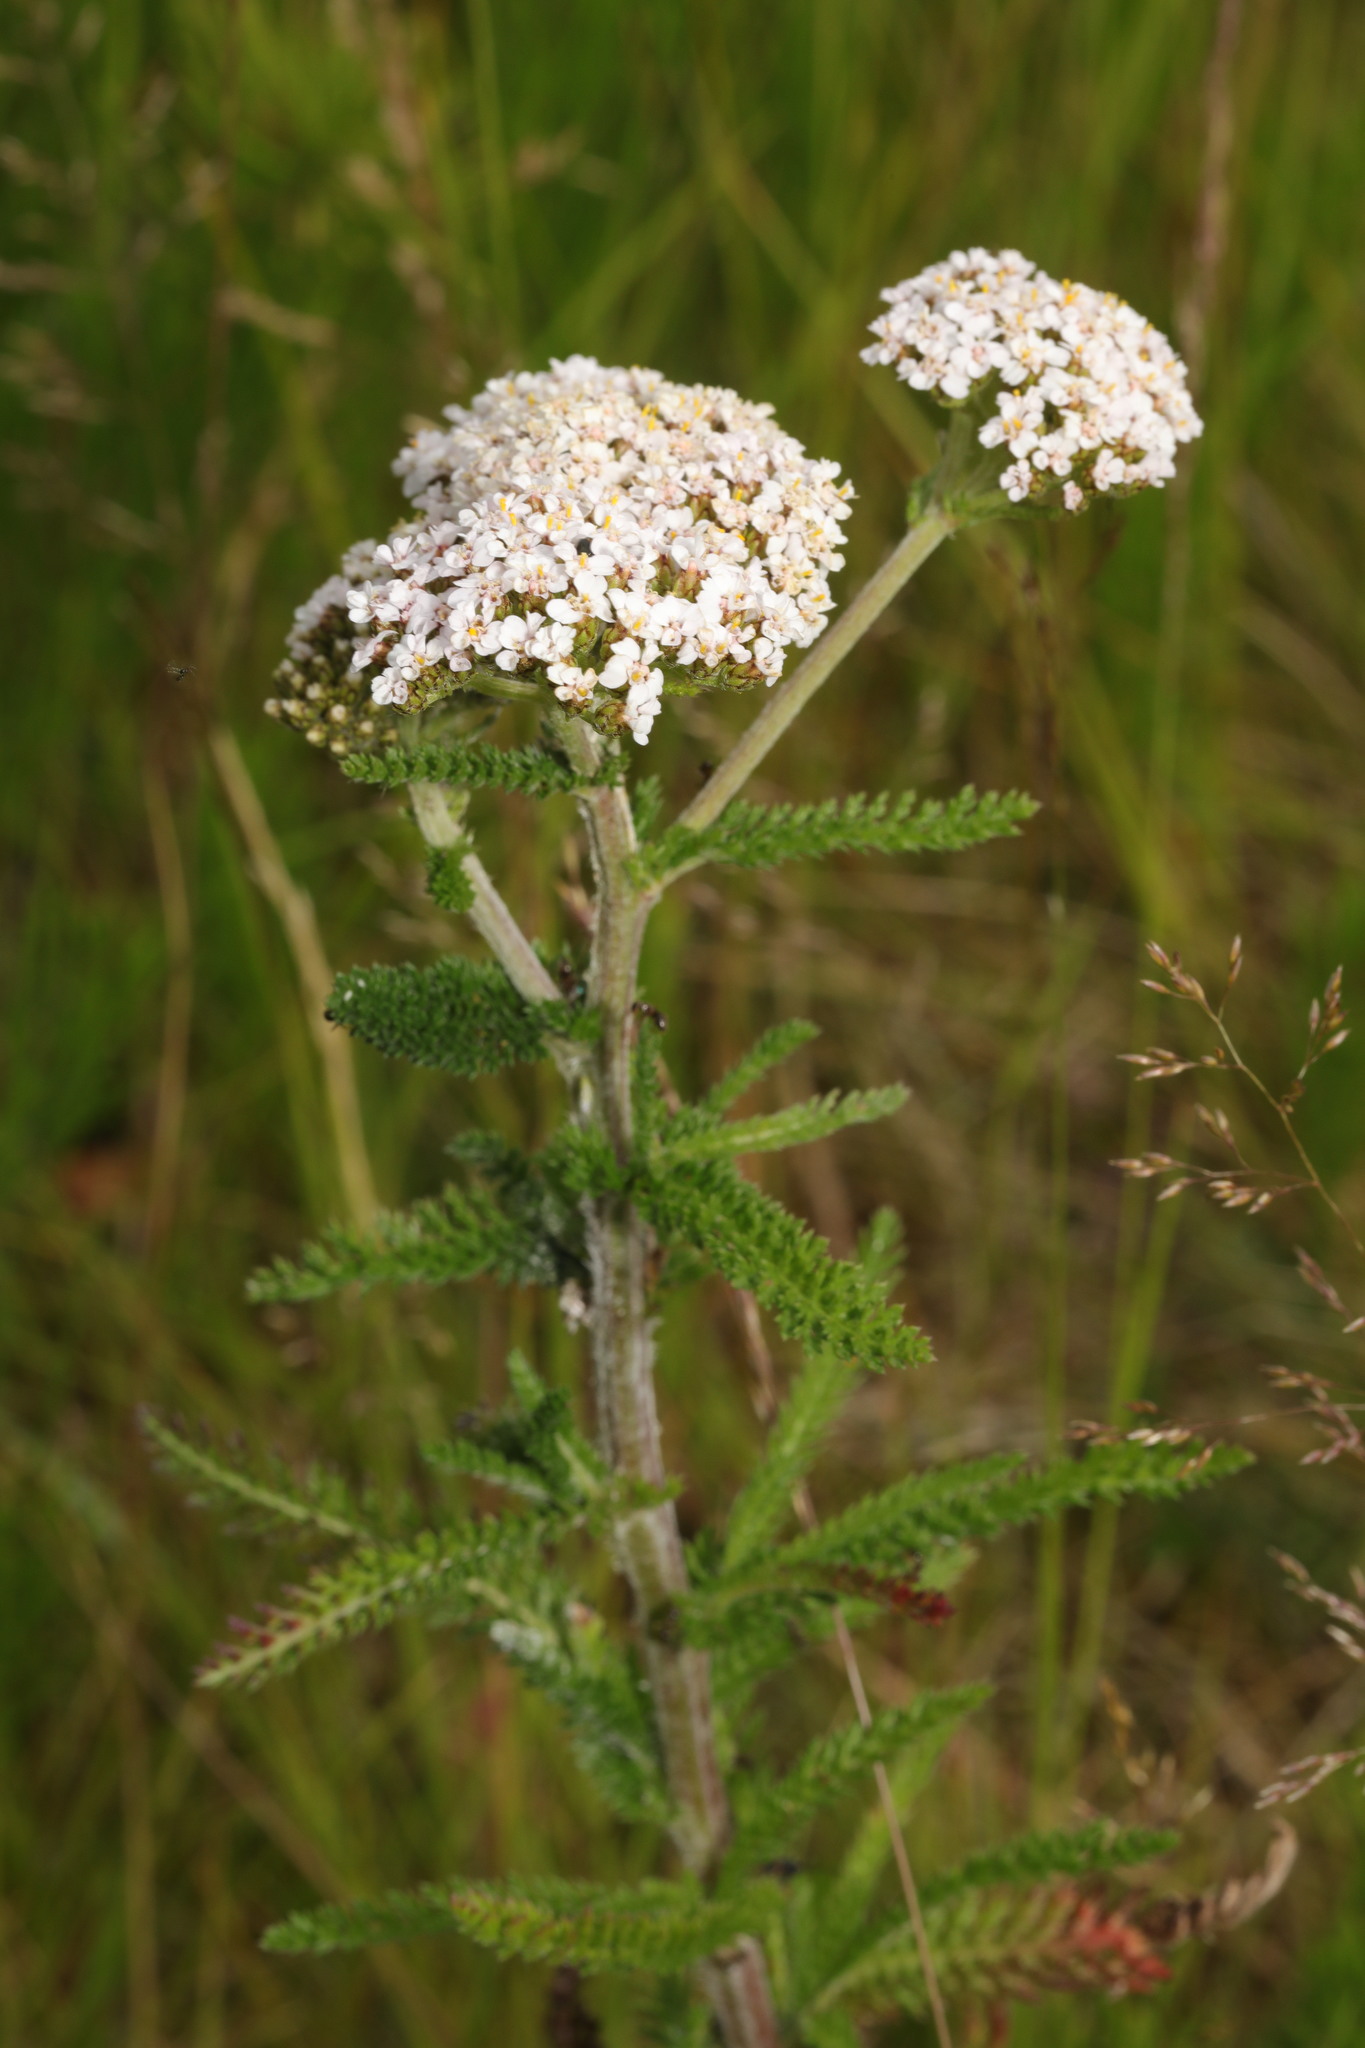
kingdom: Plantae
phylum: Tracheophyta
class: Magnoliopsida
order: Asterales
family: Asteraceae
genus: Achillea
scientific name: Achillea millefolium
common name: Yarrow
